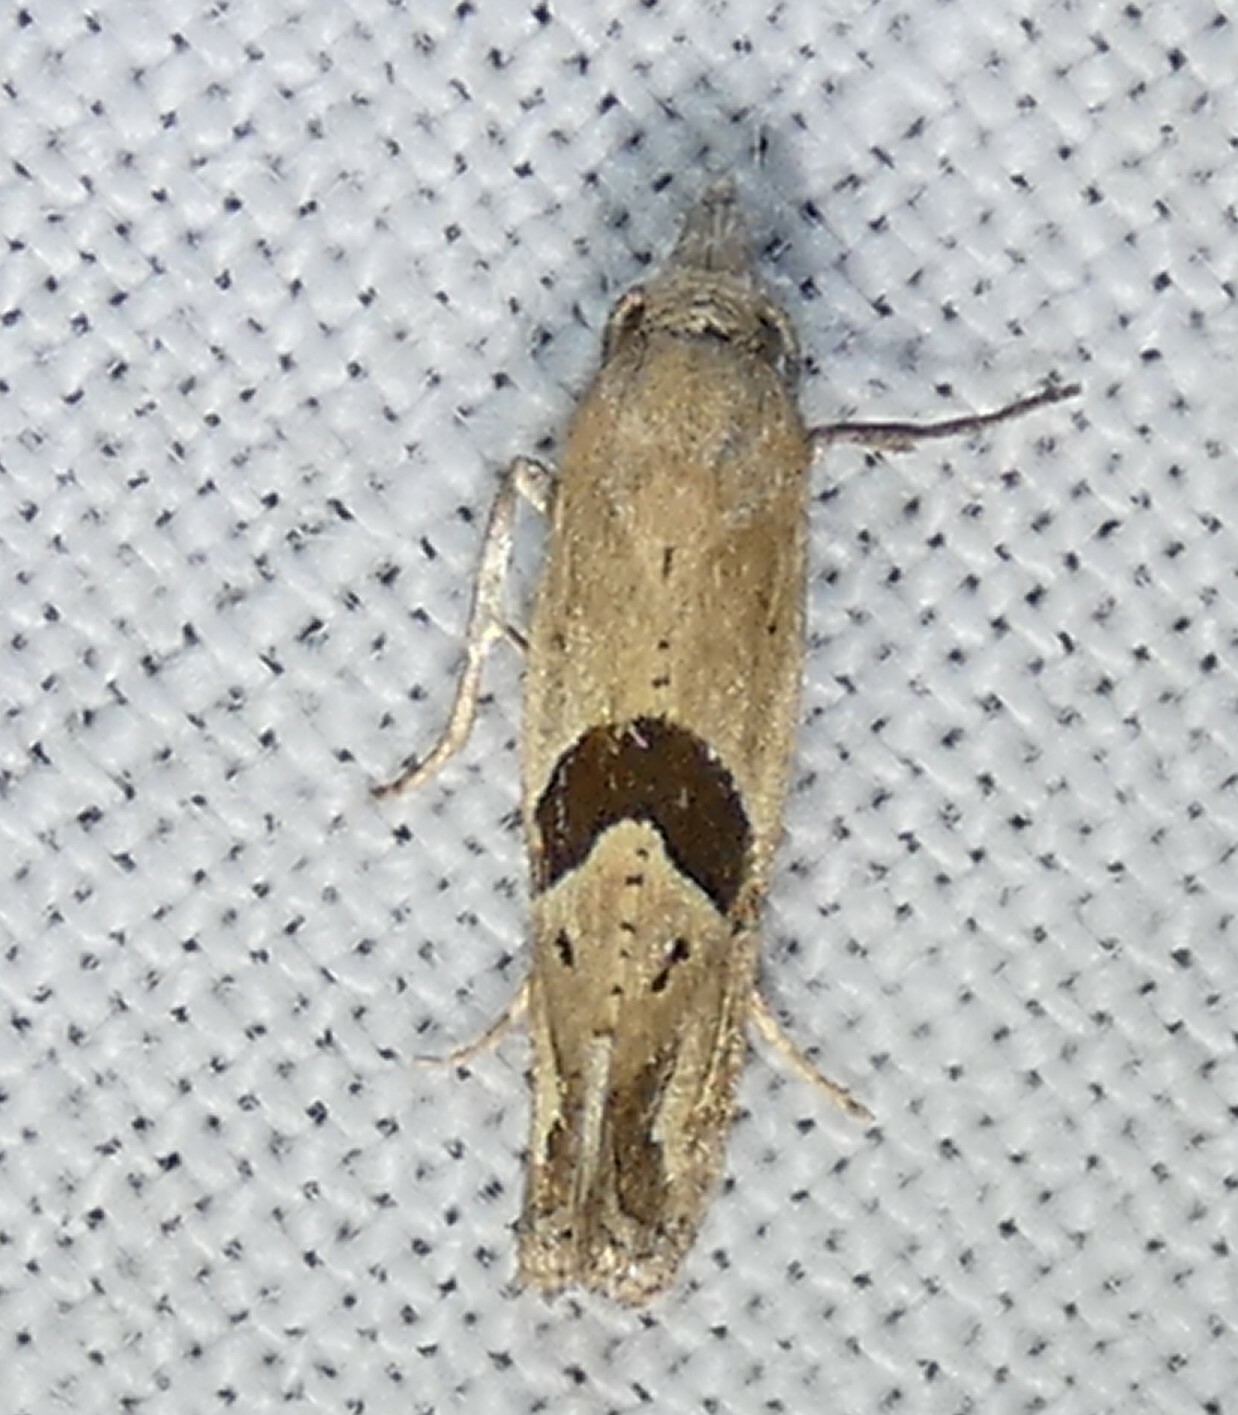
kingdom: Animalia
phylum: Arthropoda
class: Insecta
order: Lepidoptera
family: Tortricidae
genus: Eugnosta
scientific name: Eugnosta sartana
